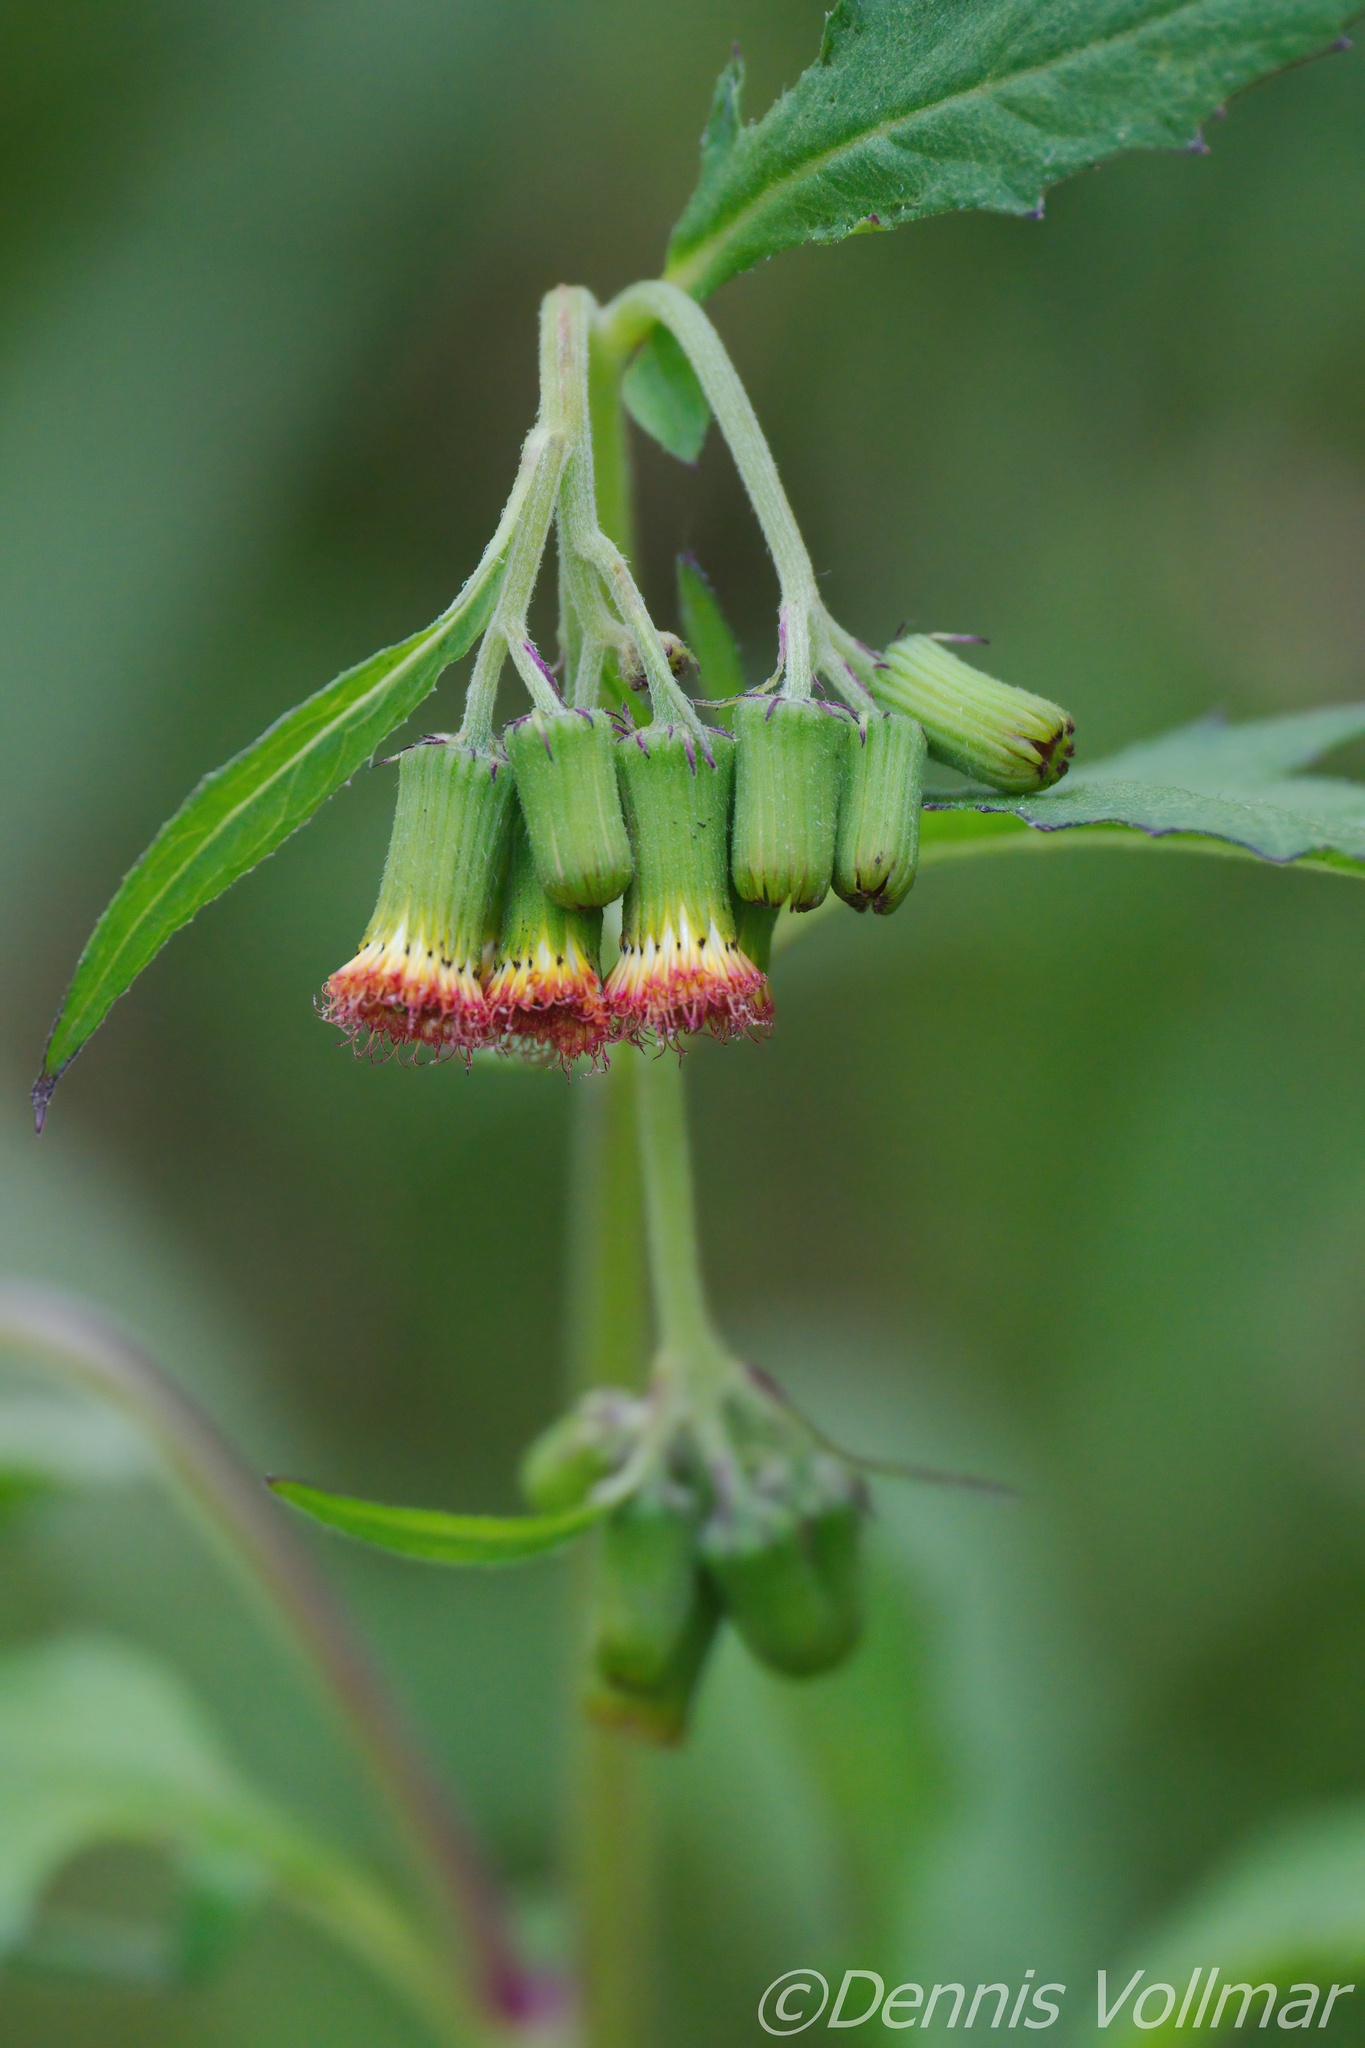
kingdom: Plantae
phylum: Tracheophyta
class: Magnoliopsida
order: Asterales
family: Asteraceae
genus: Crassocephalum
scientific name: Crassocephalum crepidioides
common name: Redflower ragleaf
